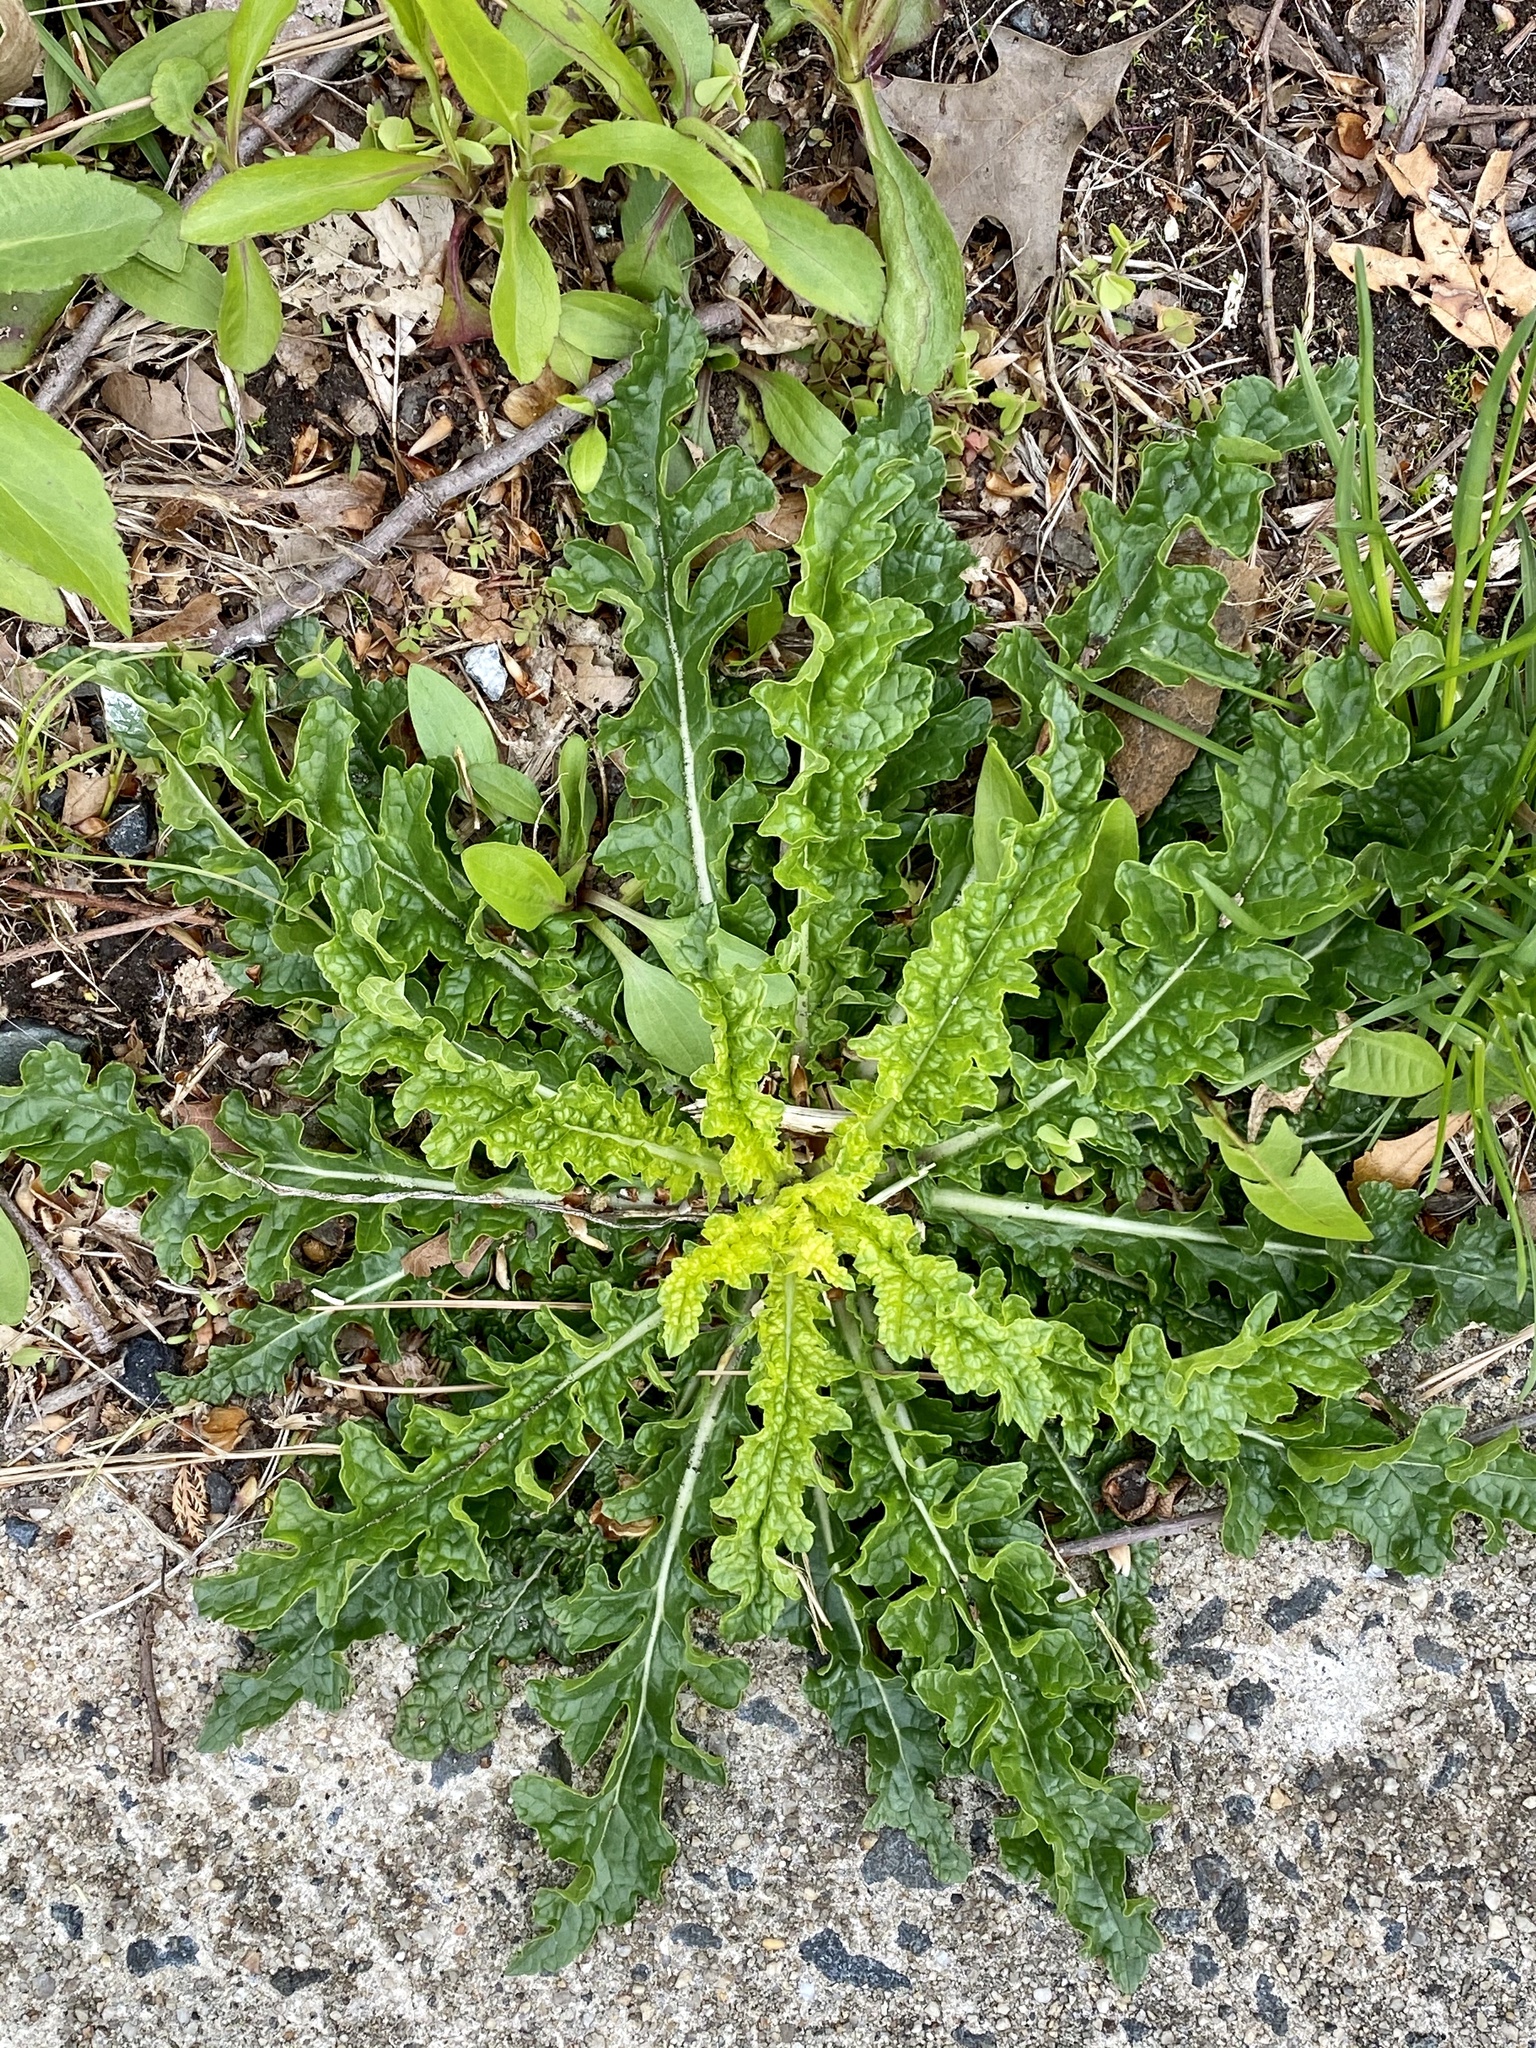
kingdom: Plantae
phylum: Tracheophyta
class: Magnoliopsida
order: Lamiales
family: Scrophulariaceae
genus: Verbascum
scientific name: Verbascum blattaria
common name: Moth mullein
